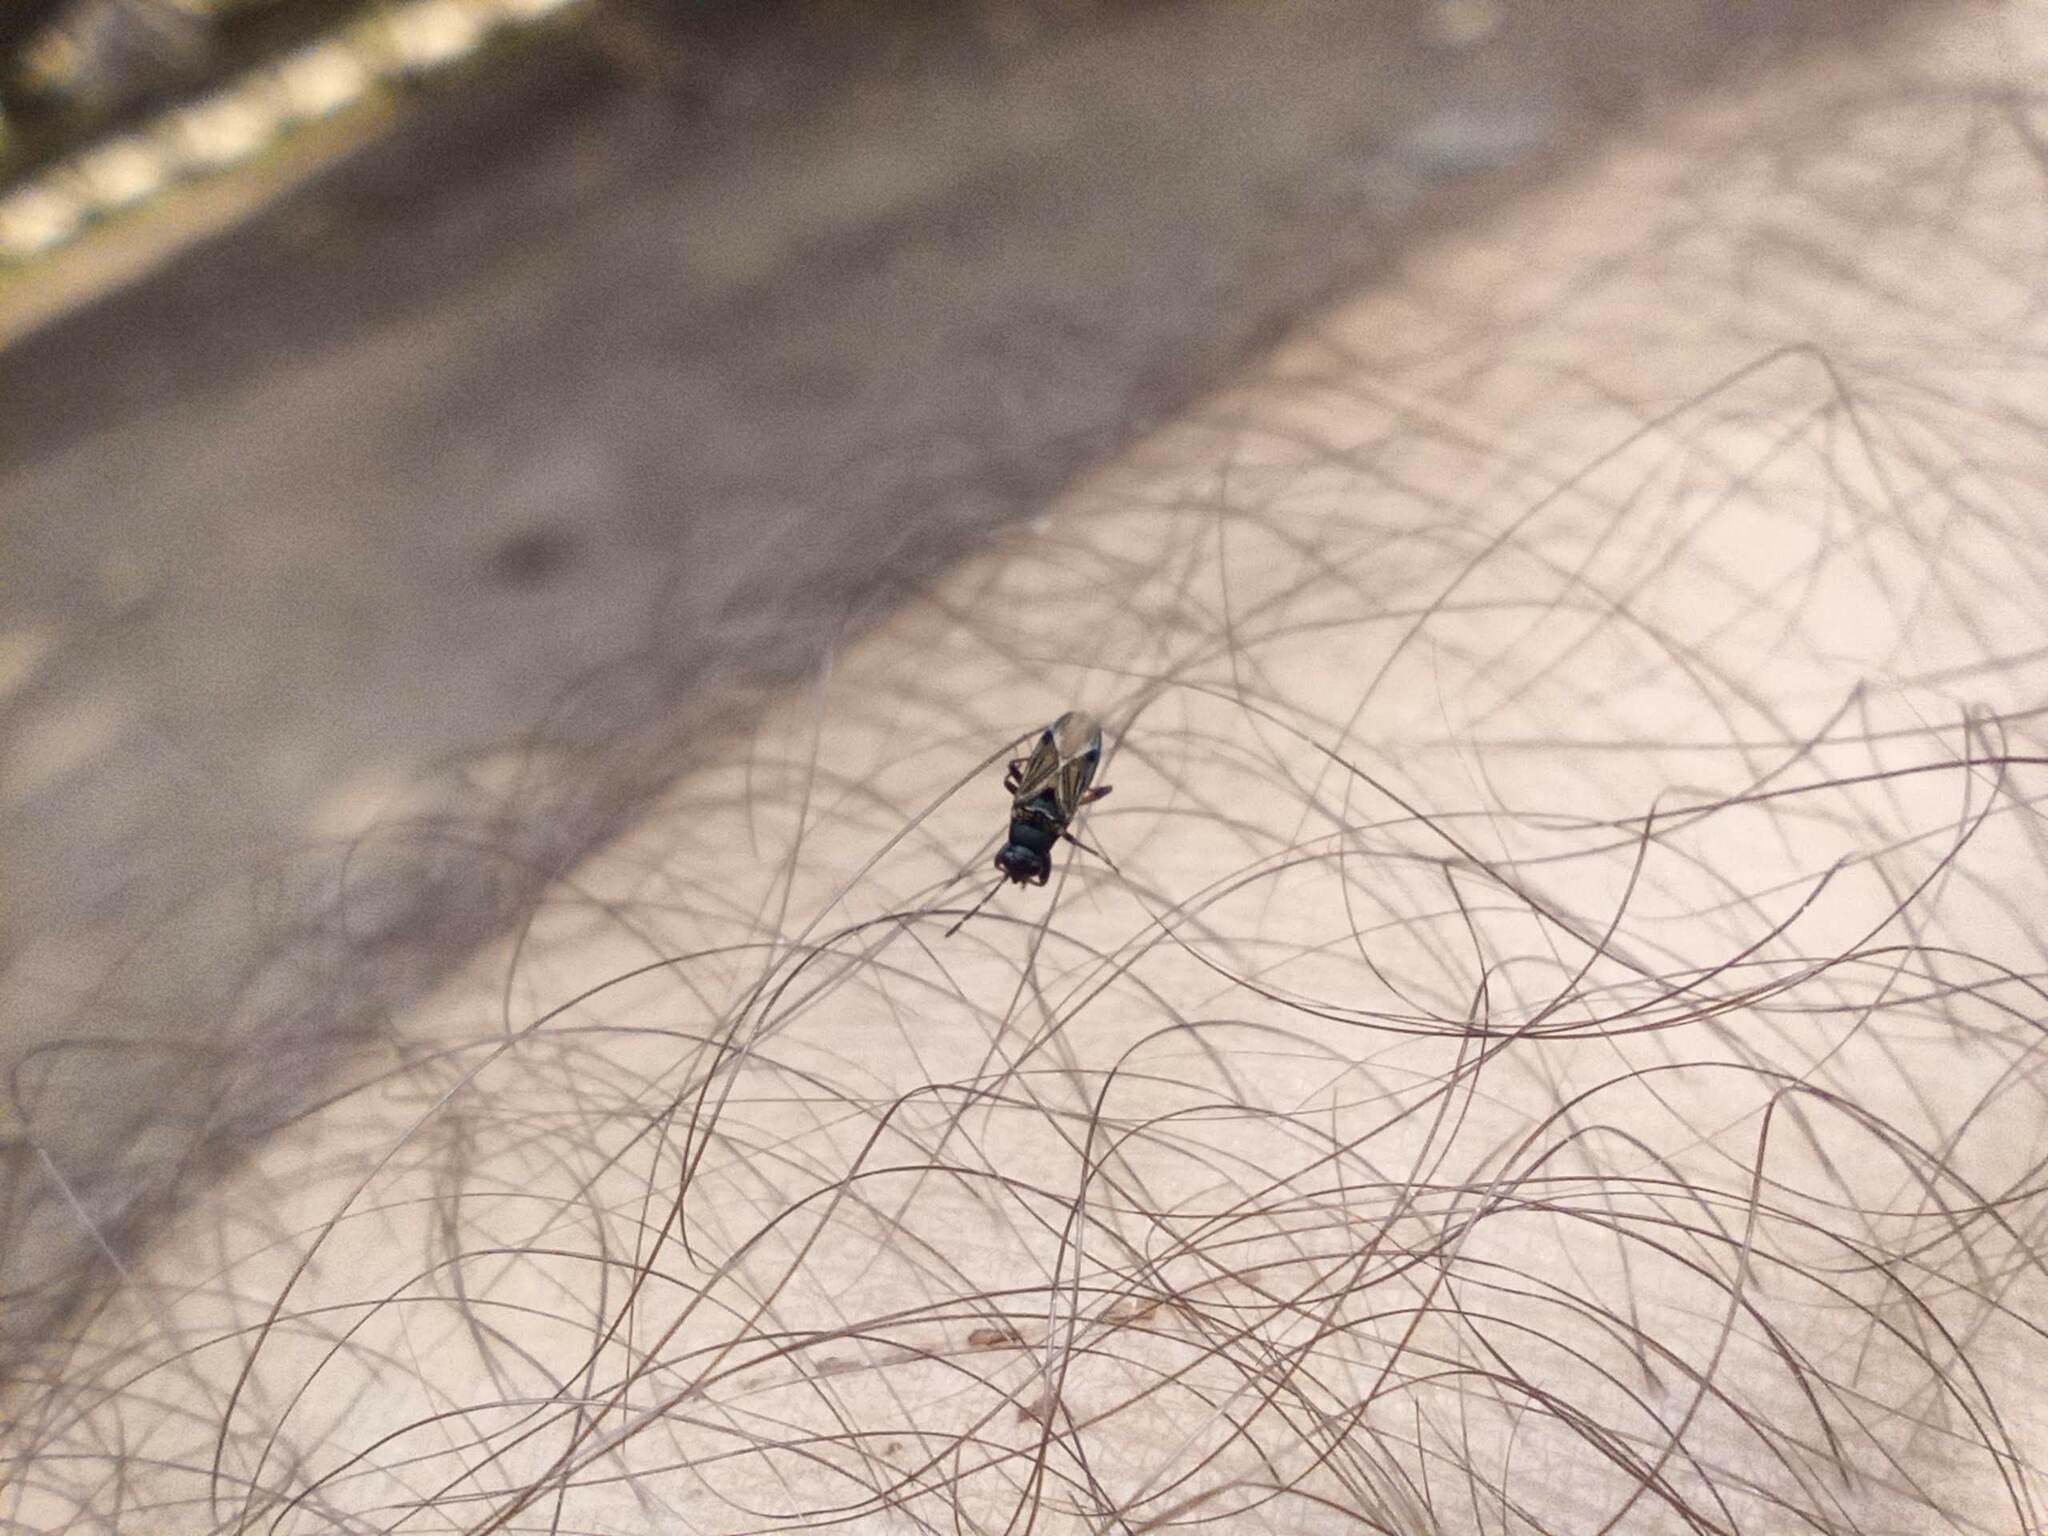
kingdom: Animalia
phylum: Arthropoda
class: Insecta
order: Hemiptera
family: Rhyparochromidae
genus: Ischnocoris
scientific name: Ischnocoris angustulus
